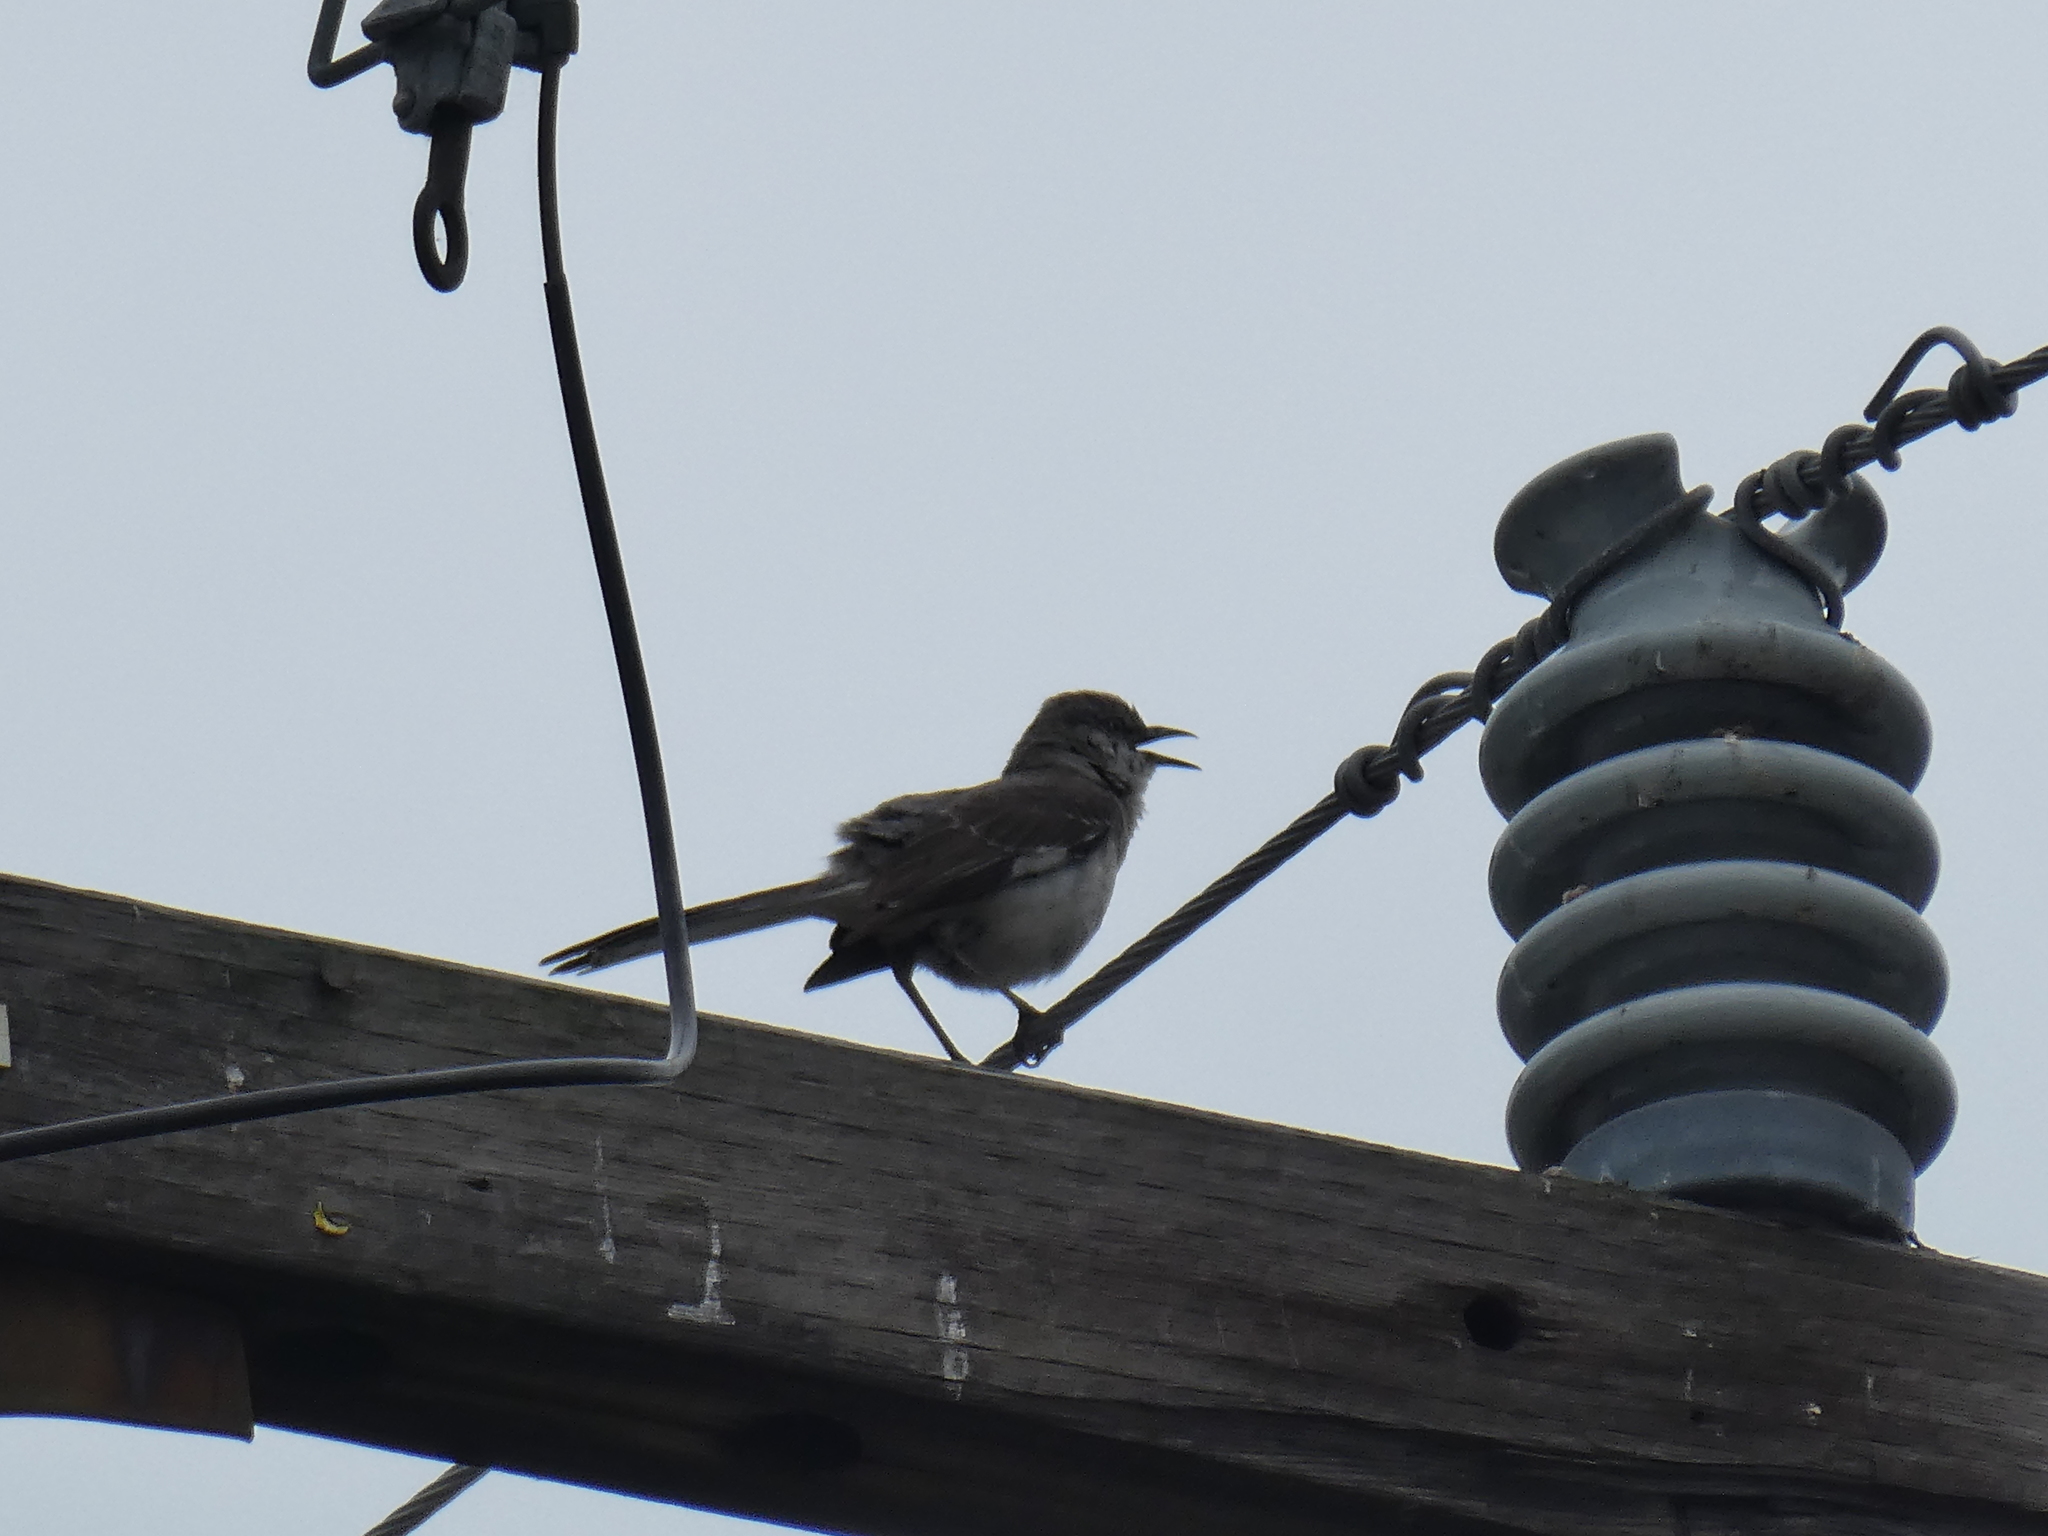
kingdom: Animalia
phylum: Chordata
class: Aves
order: Passeriformes
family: Mimidae
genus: Mimus
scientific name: Mimus polyglottos
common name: Northern mockingbird
